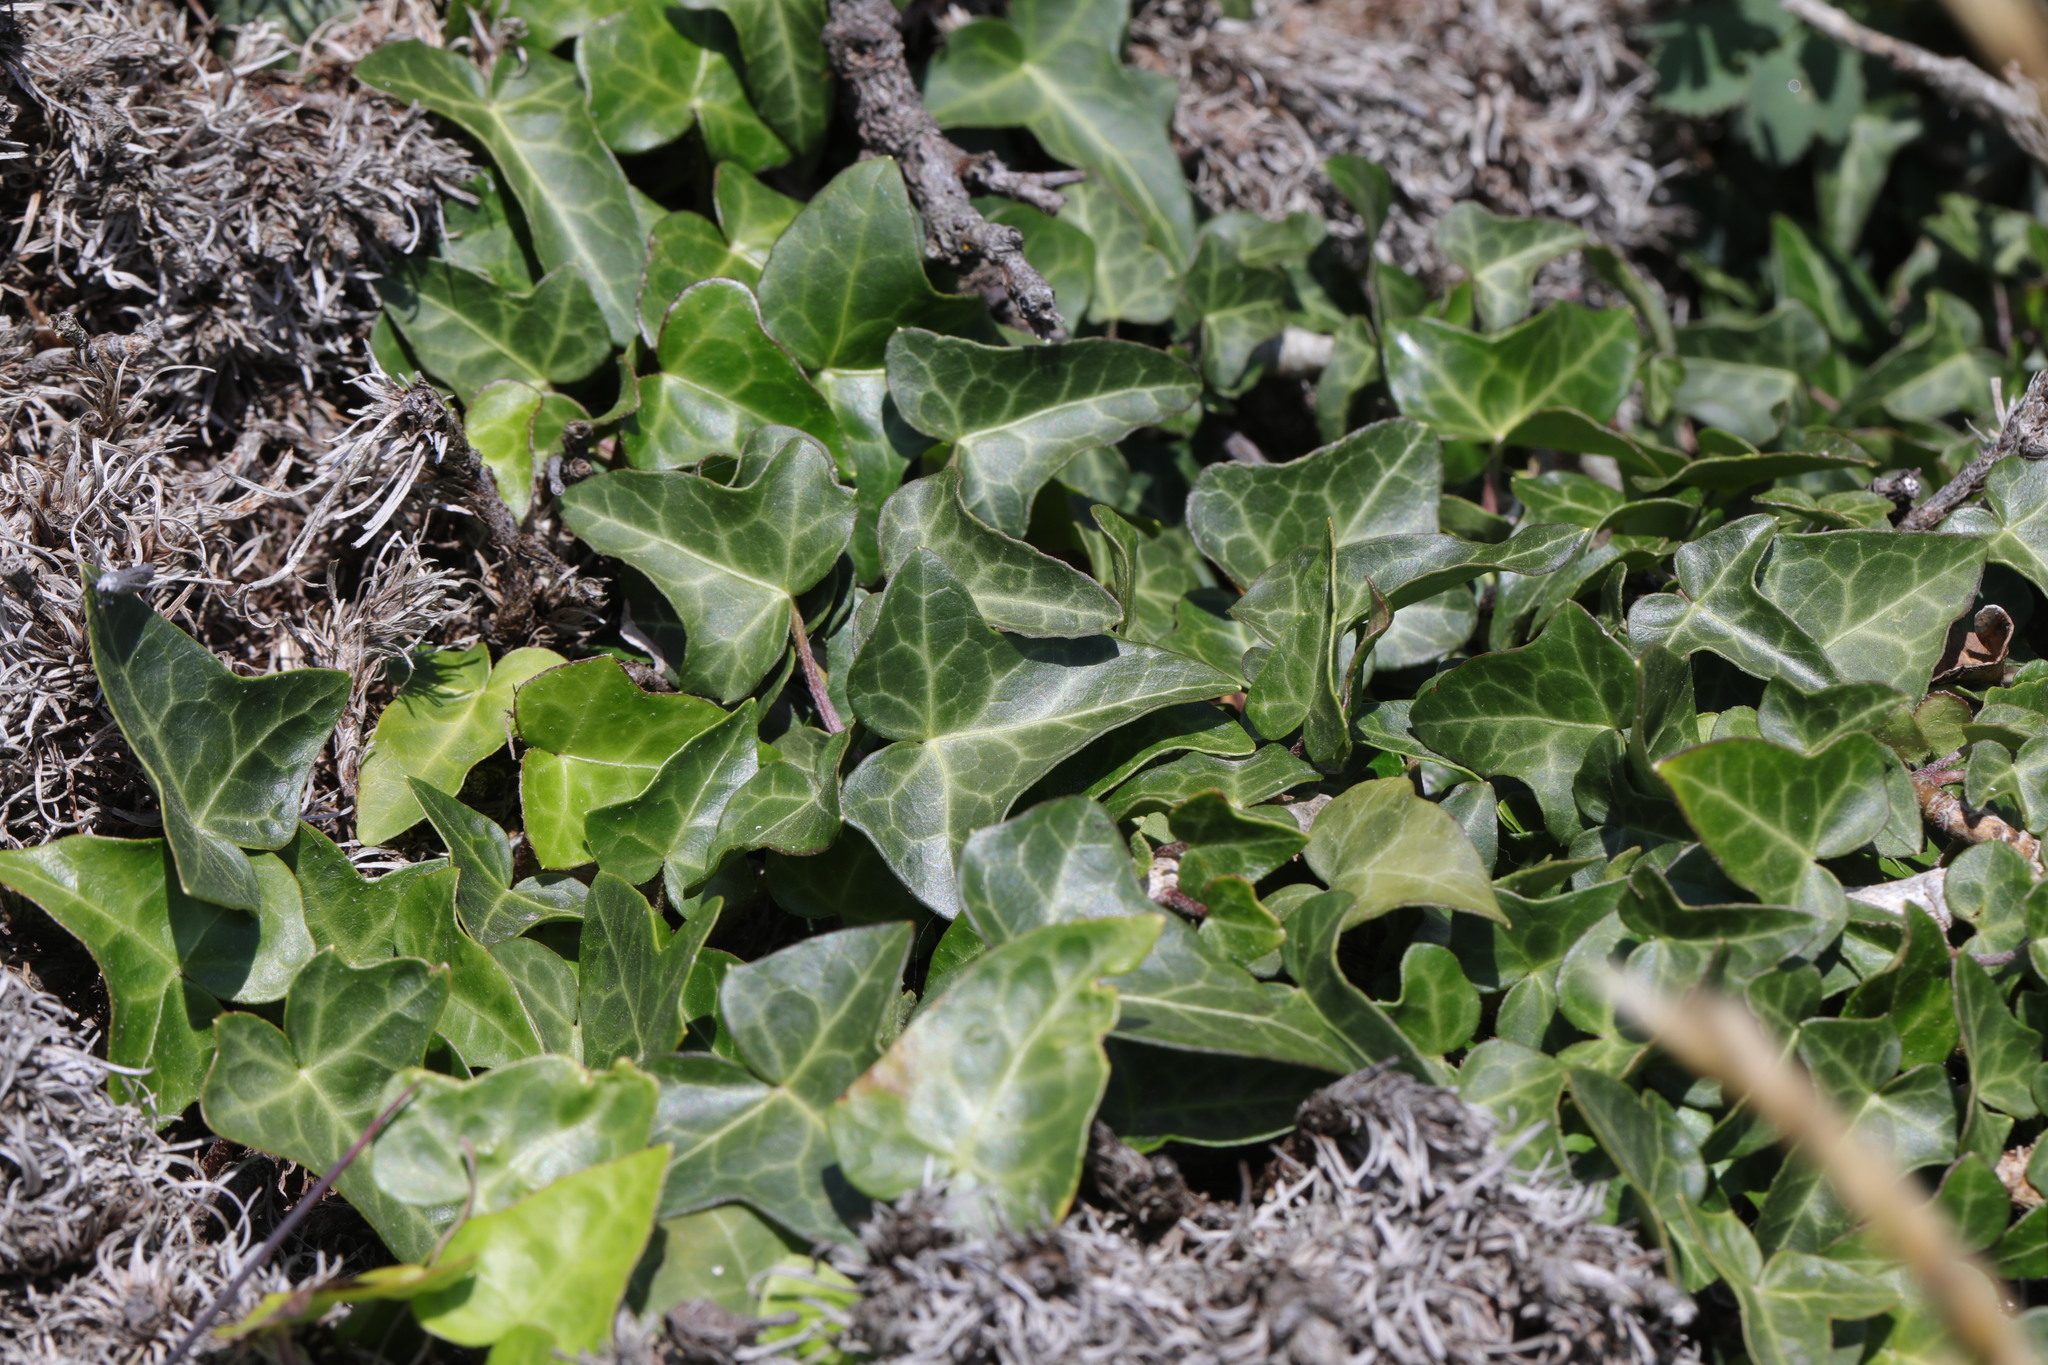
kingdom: Plantae
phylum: Tracheophyta
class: Magnoliopsida
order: Apiales
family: Araliaceae
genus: Hedera
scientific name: Hedera helix
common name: Ivy
